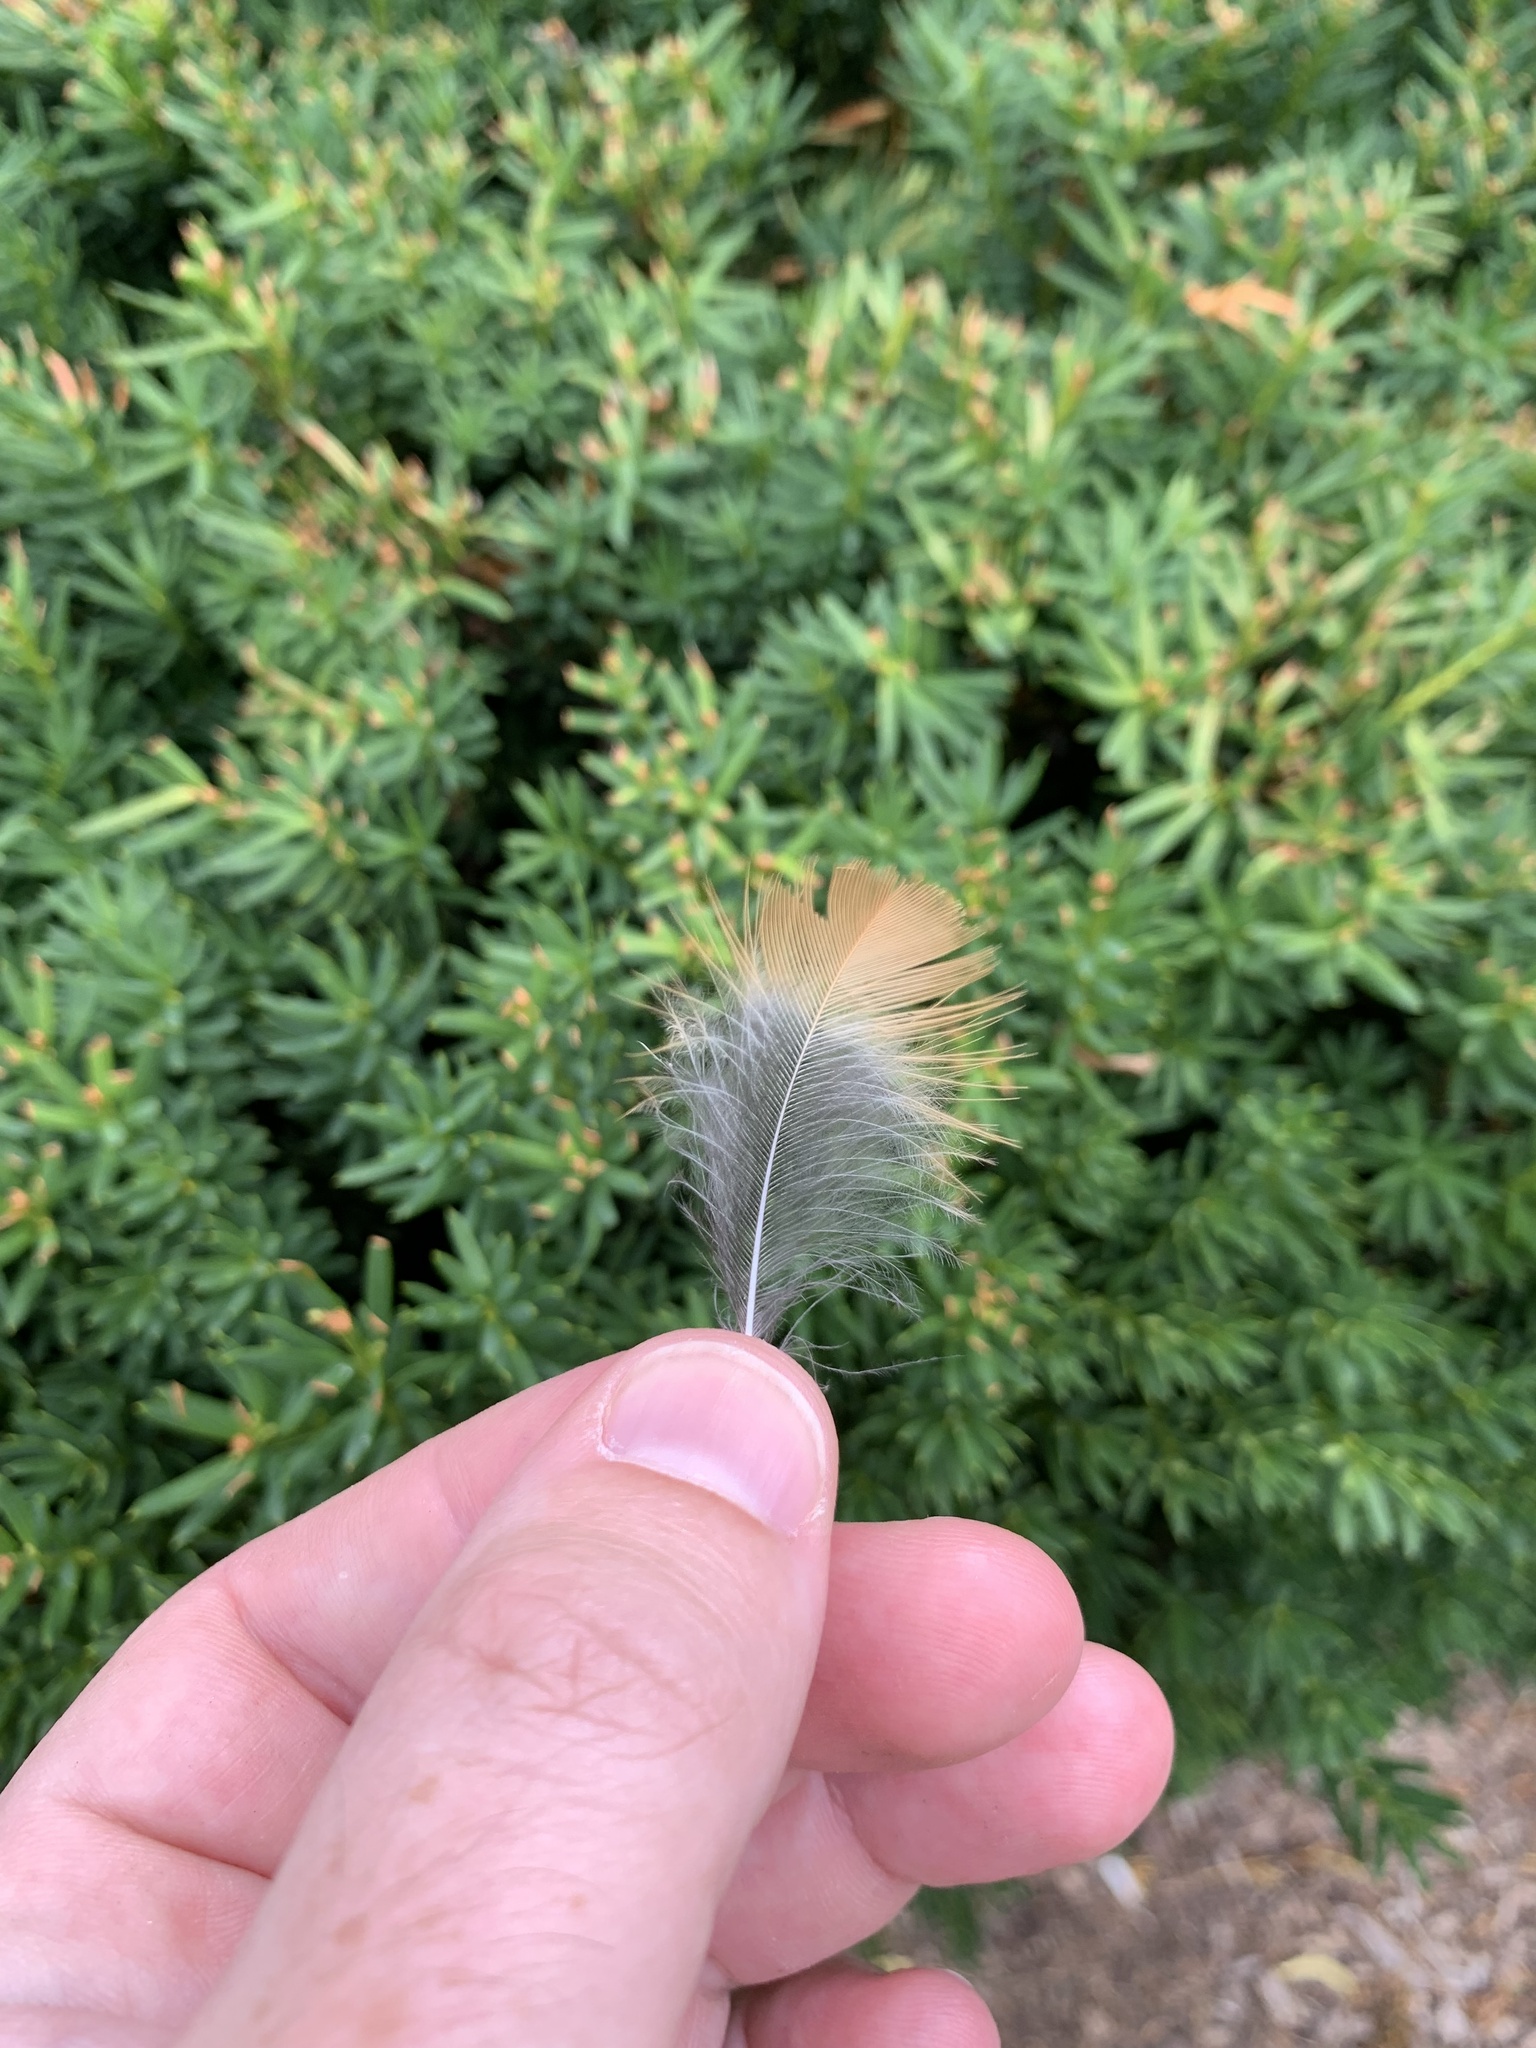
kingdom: Animalia
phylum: Chordata
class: Aves
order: Passeriformes
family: Turdidae
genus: Turdus
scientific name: Turdus migratorius
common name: American robin
